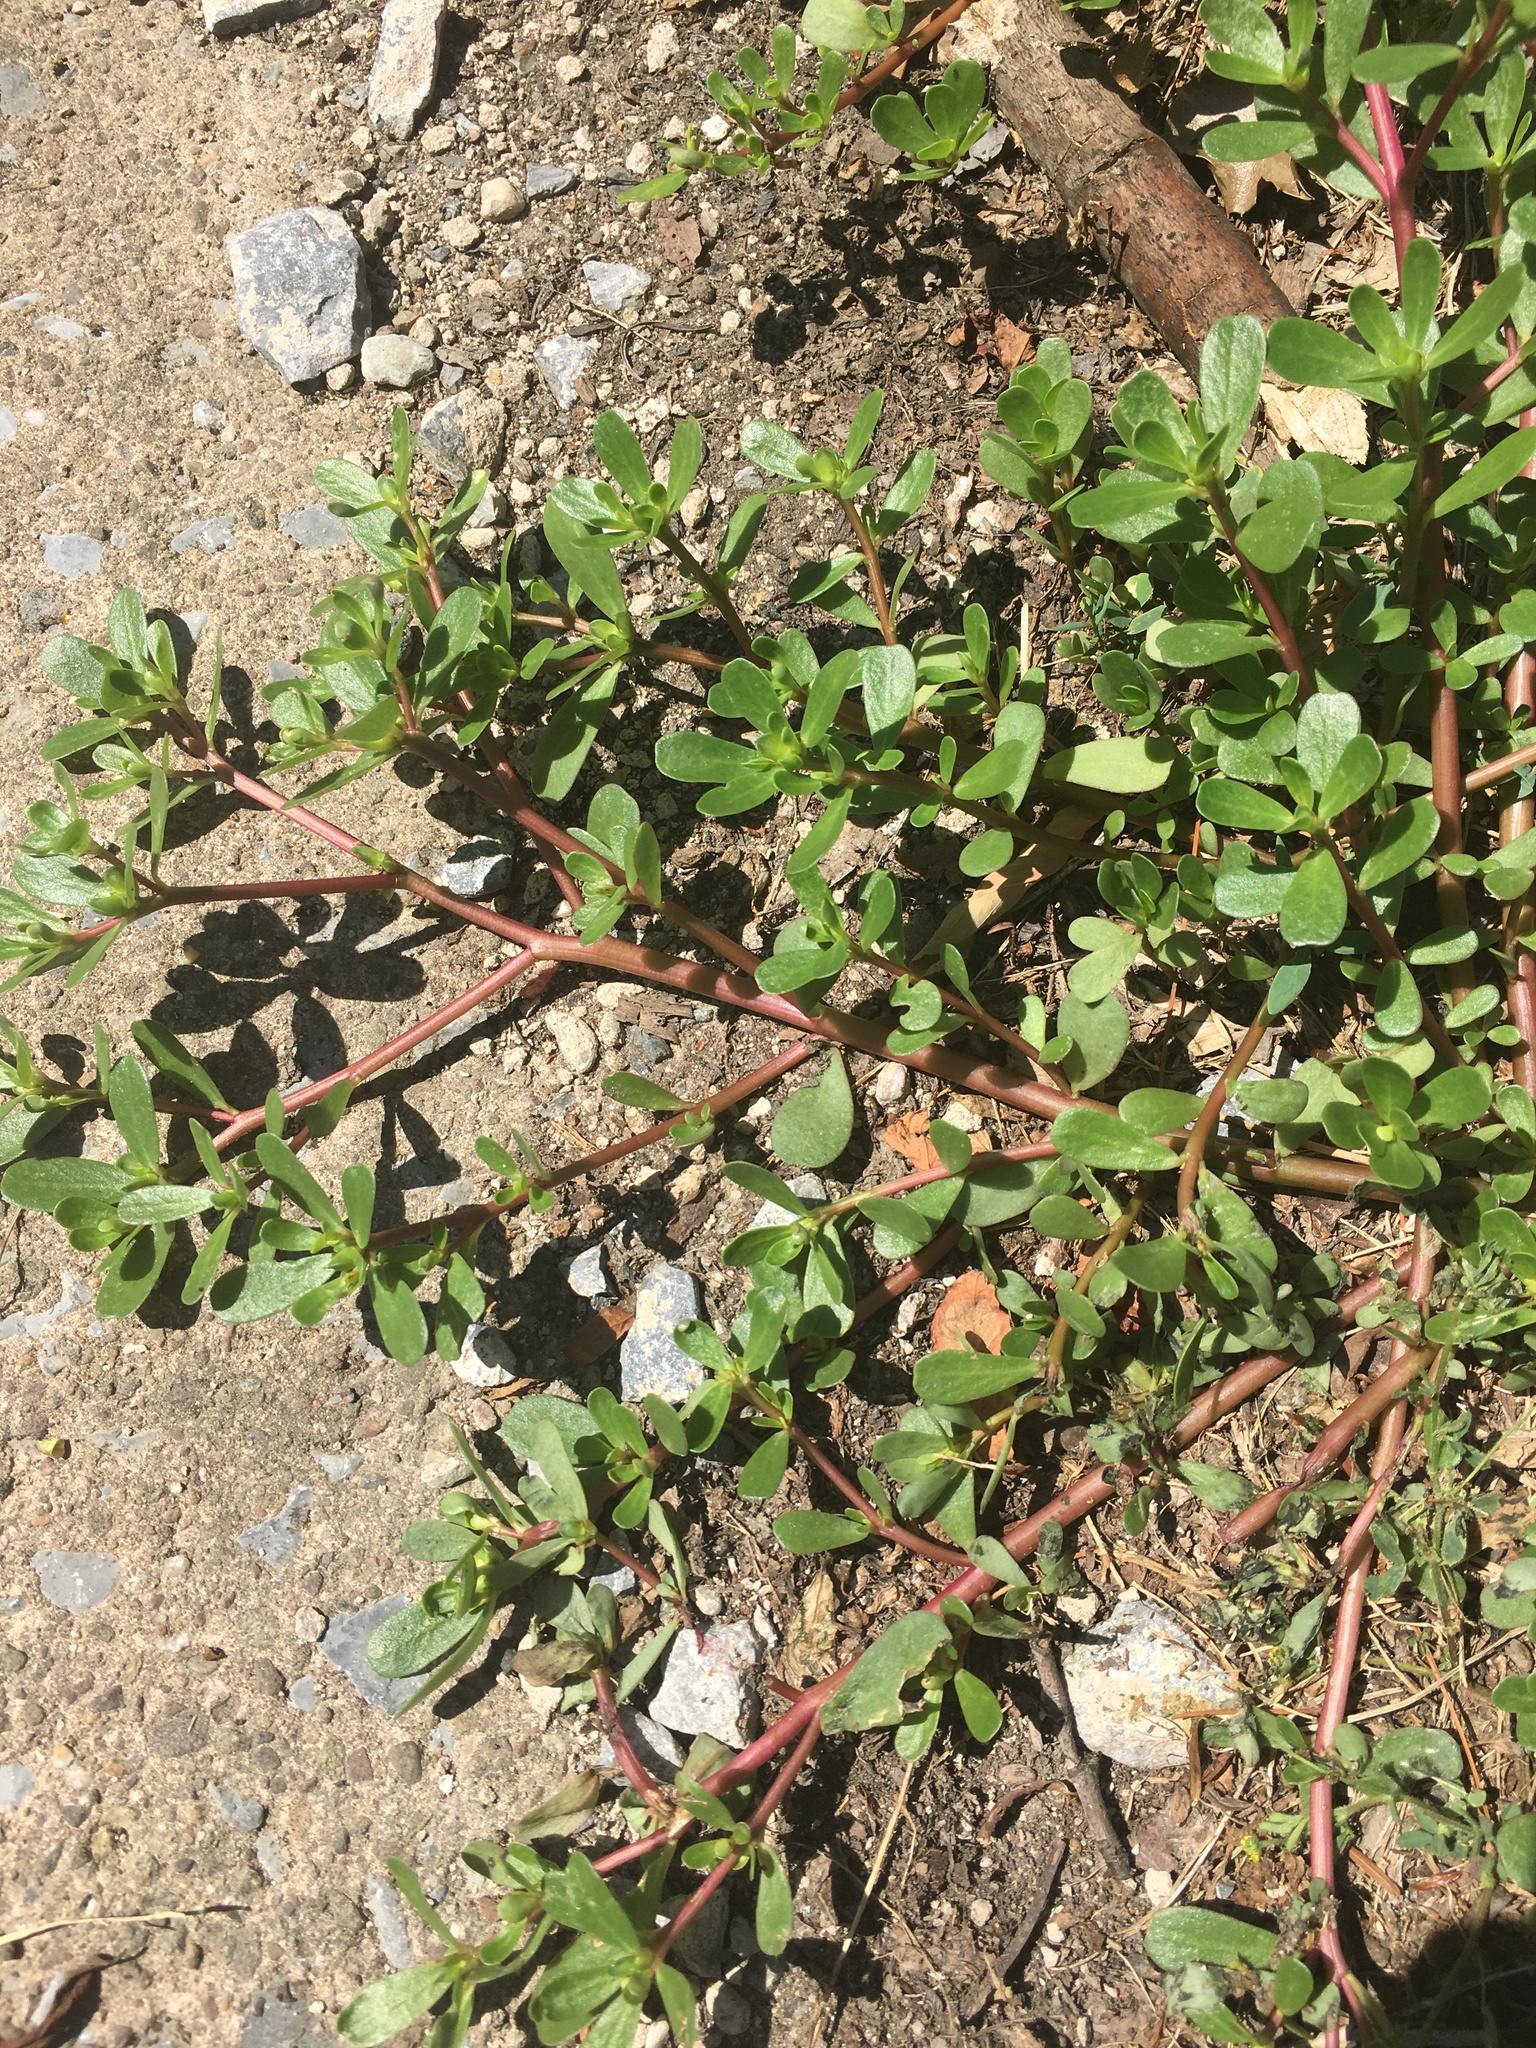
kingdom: Plantae
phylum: Tracheophyta
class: Magnoliopsida
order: Caryophyllales
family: Portulacaceae
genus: Portulaca
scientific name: Portulaca oleracea
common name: Common purslane
